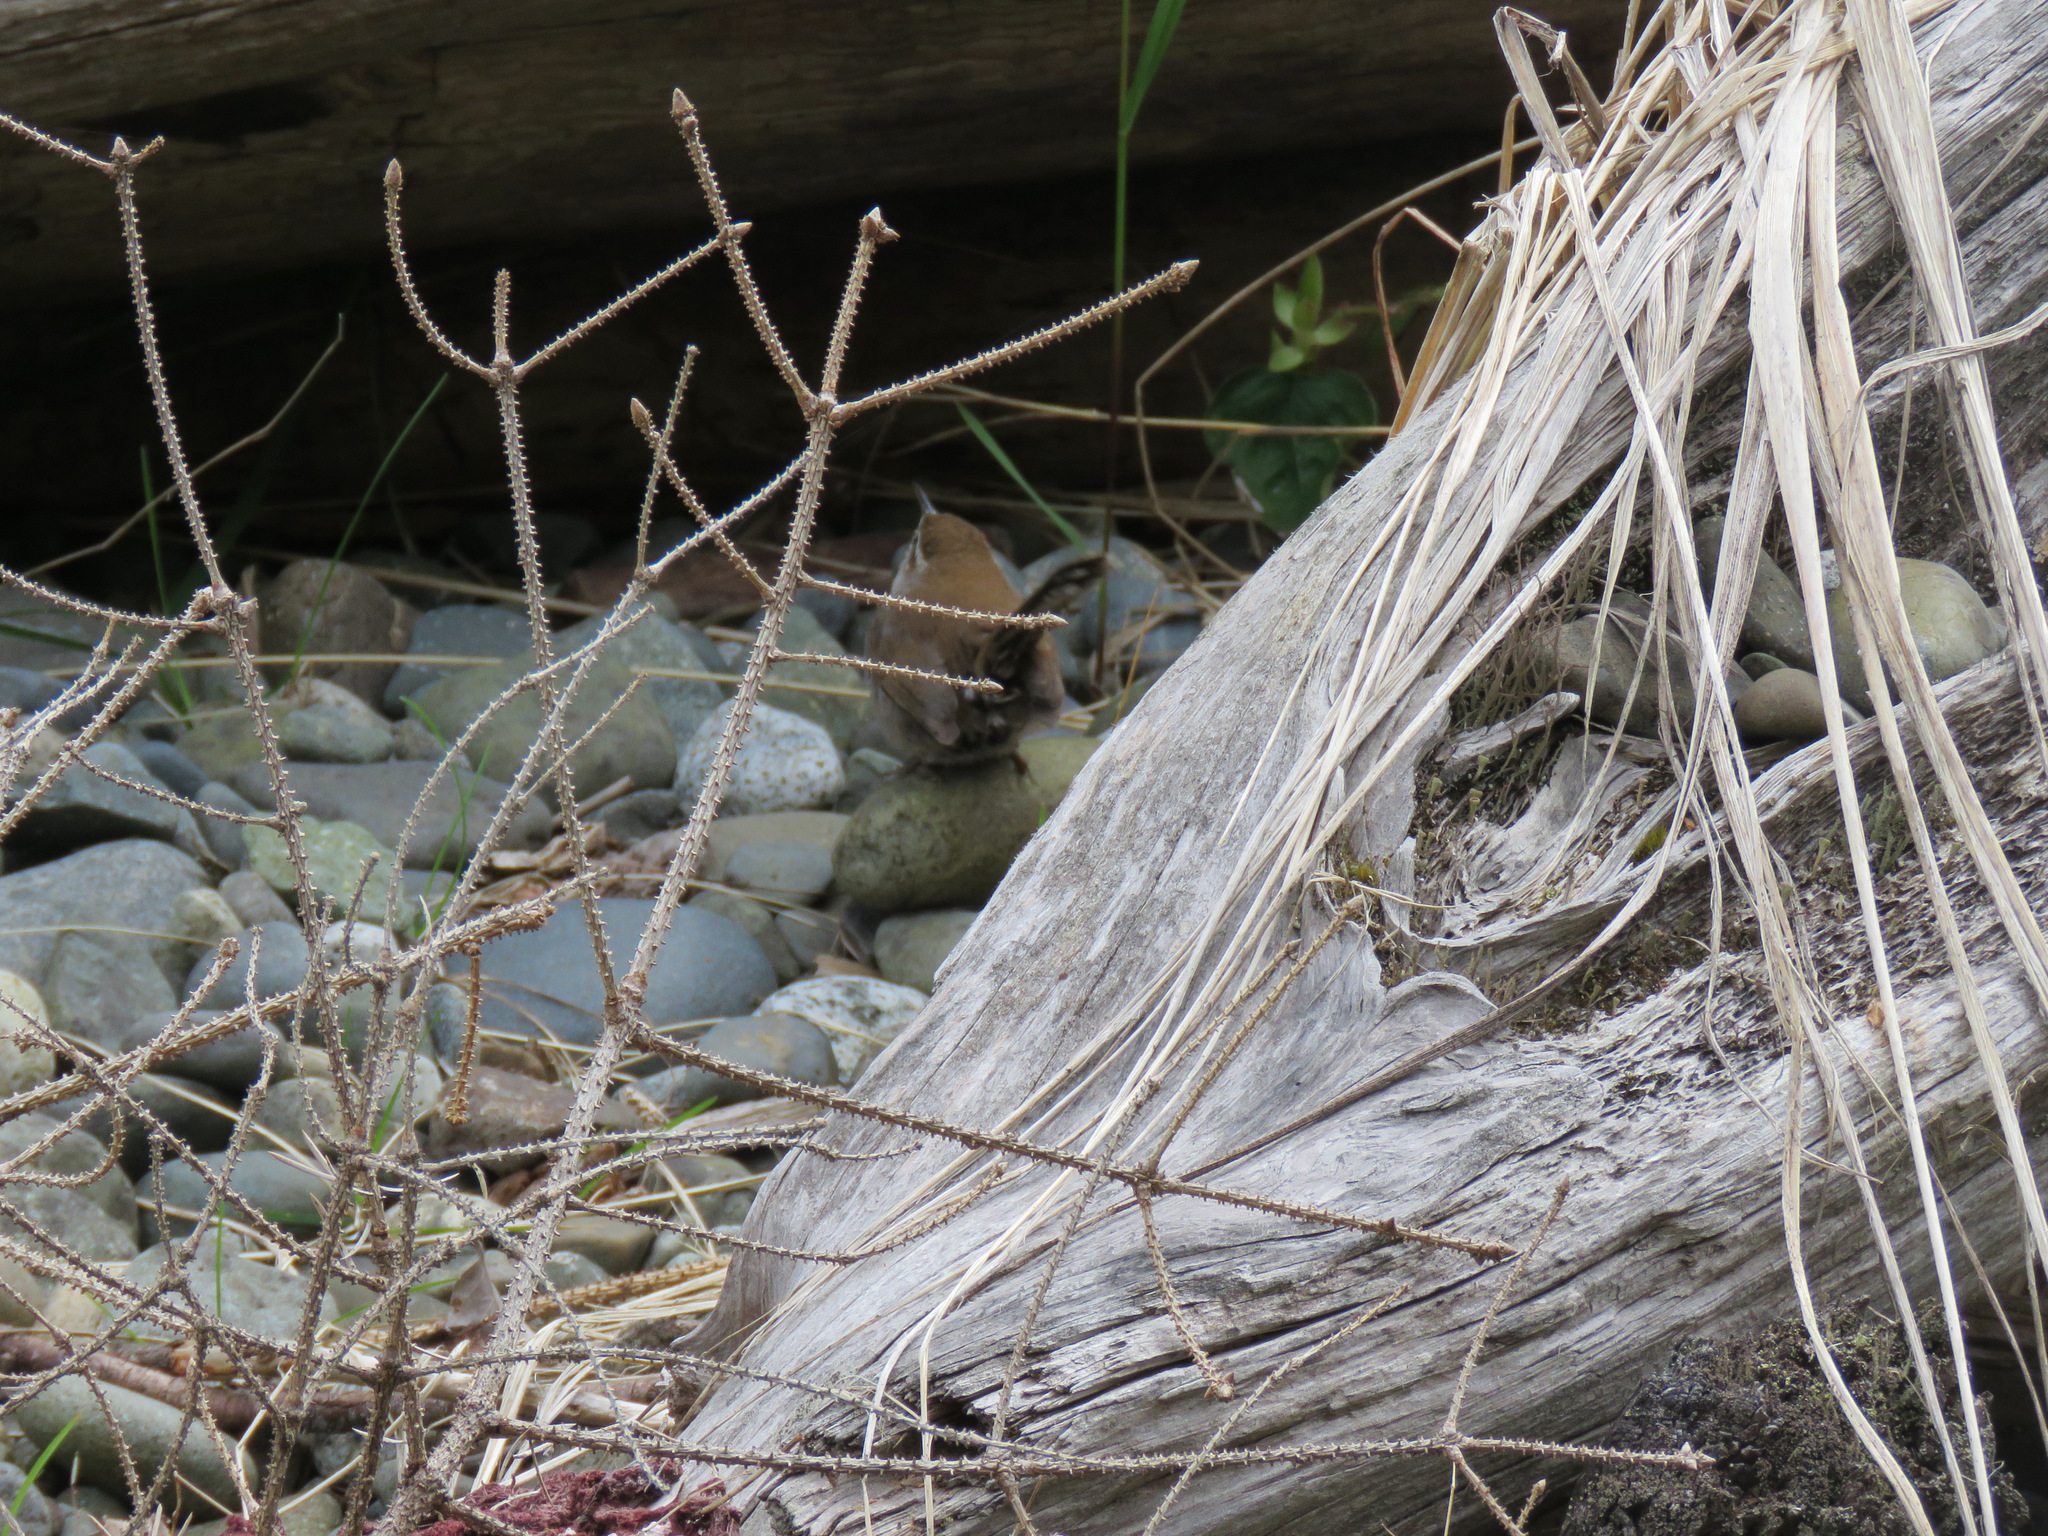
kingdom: Animalia
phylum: Chordata
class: Aves
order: Passeriformes
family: Troglodytidae
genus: Thryomanes
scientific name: Thryomanes bewickii
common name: Bewick's wren
